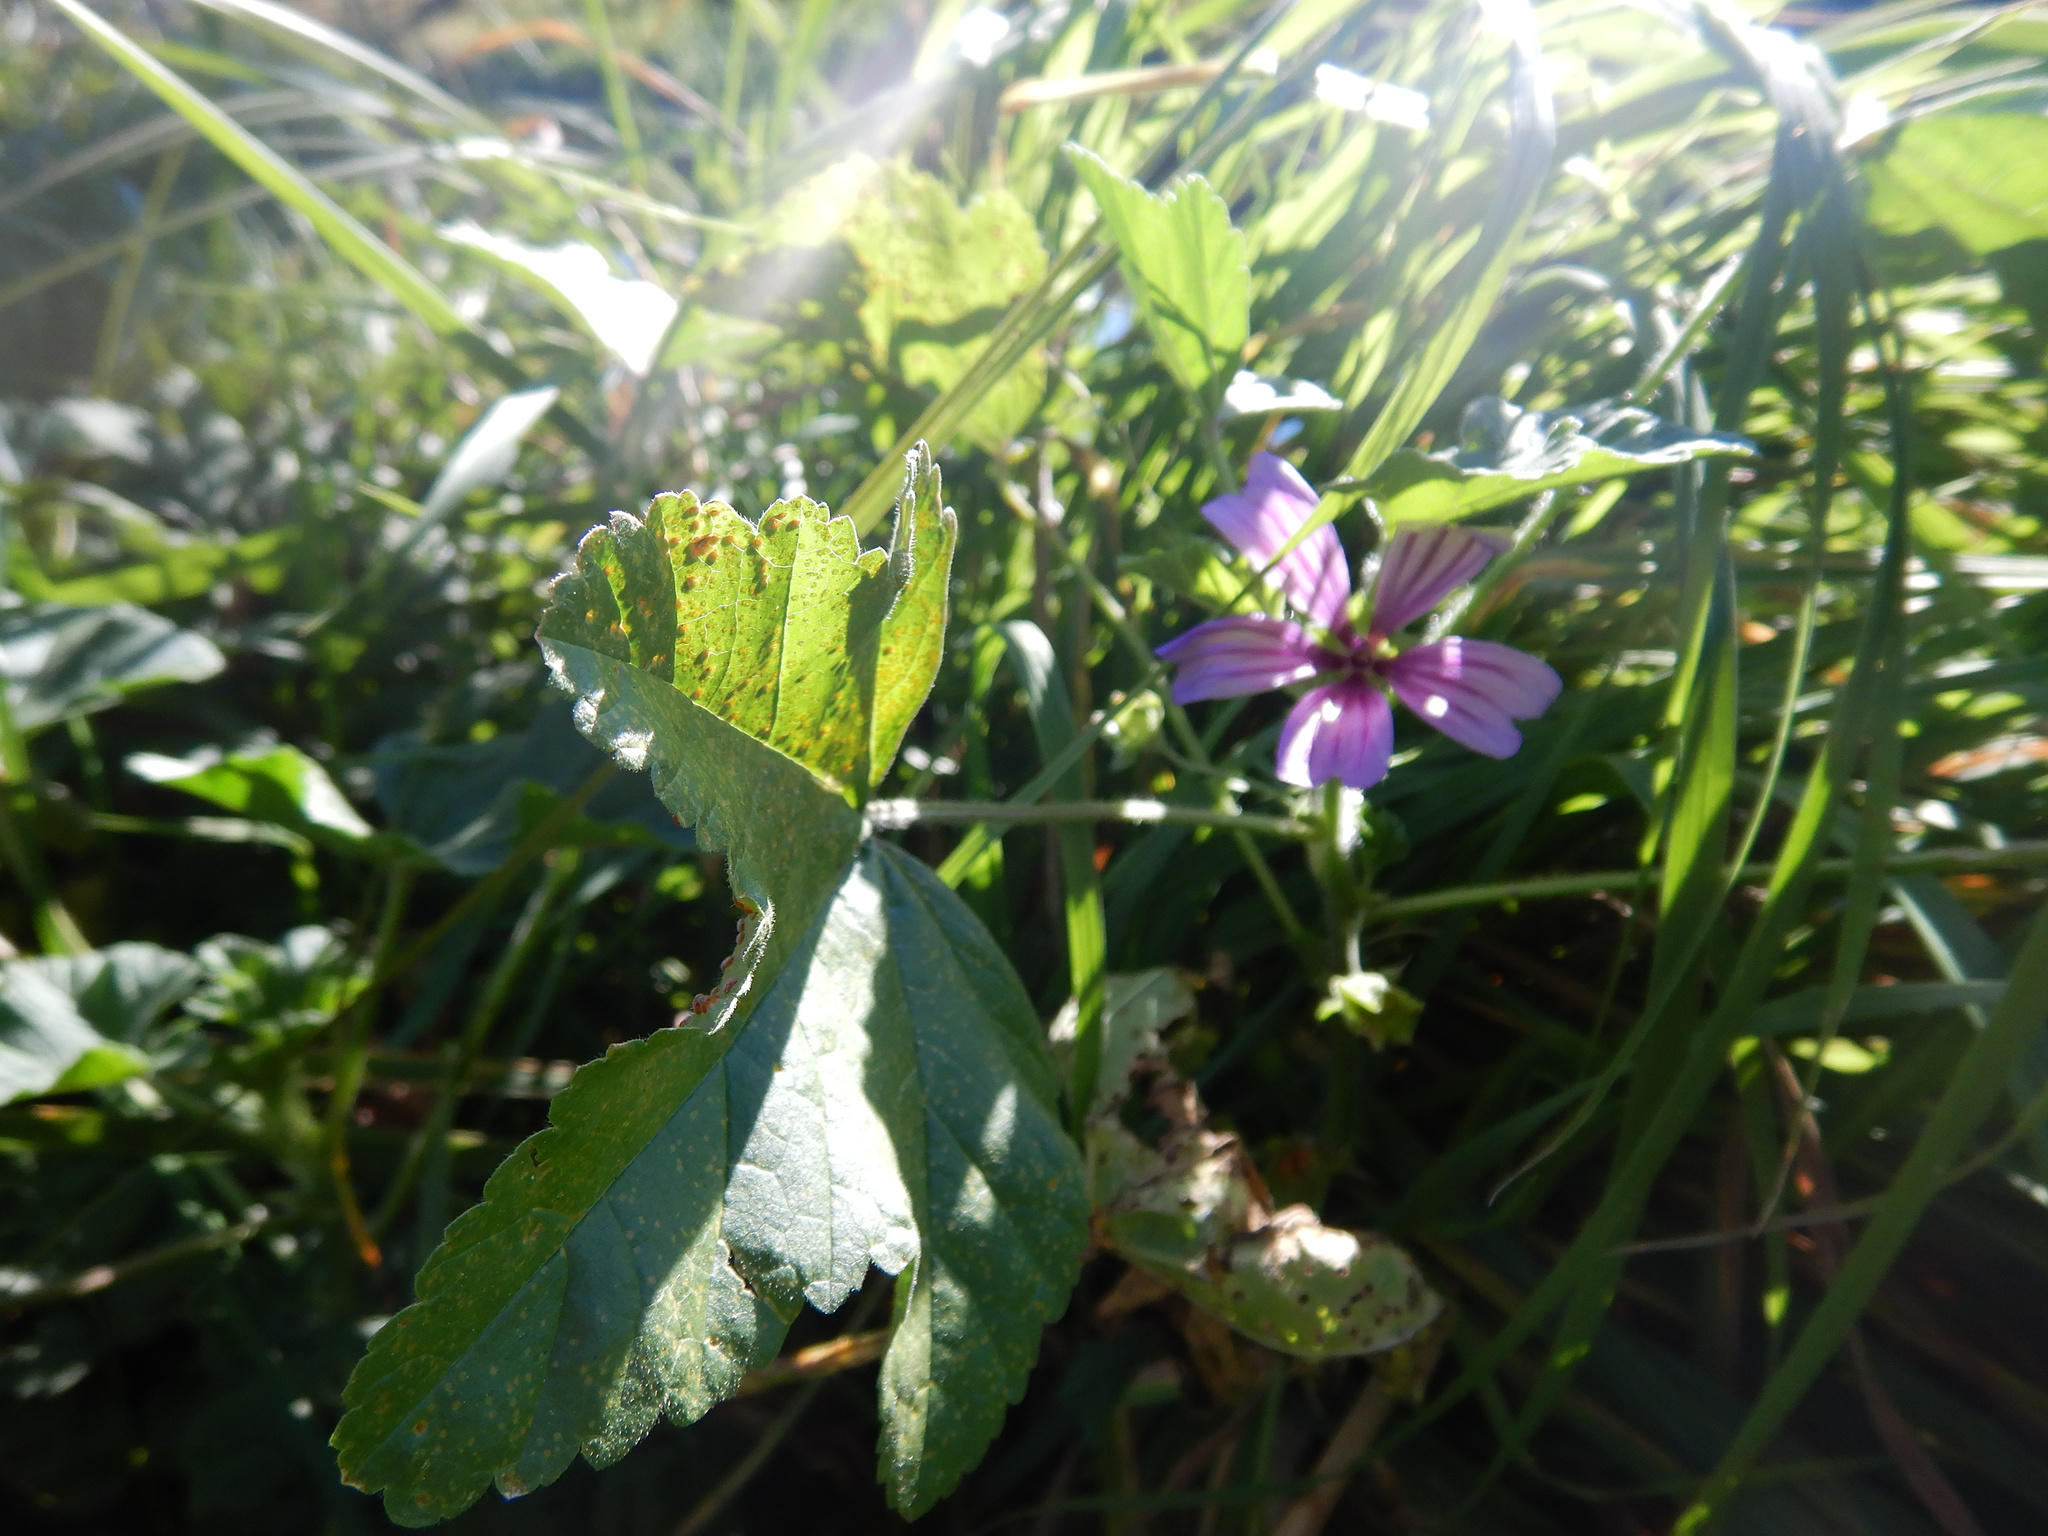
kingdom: Plantae
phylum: Tracheophyta
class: Magnoliopsida
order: Malvales
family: Malvaceae
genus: Malva
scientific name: Malva sylvestris
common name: Common mallow
